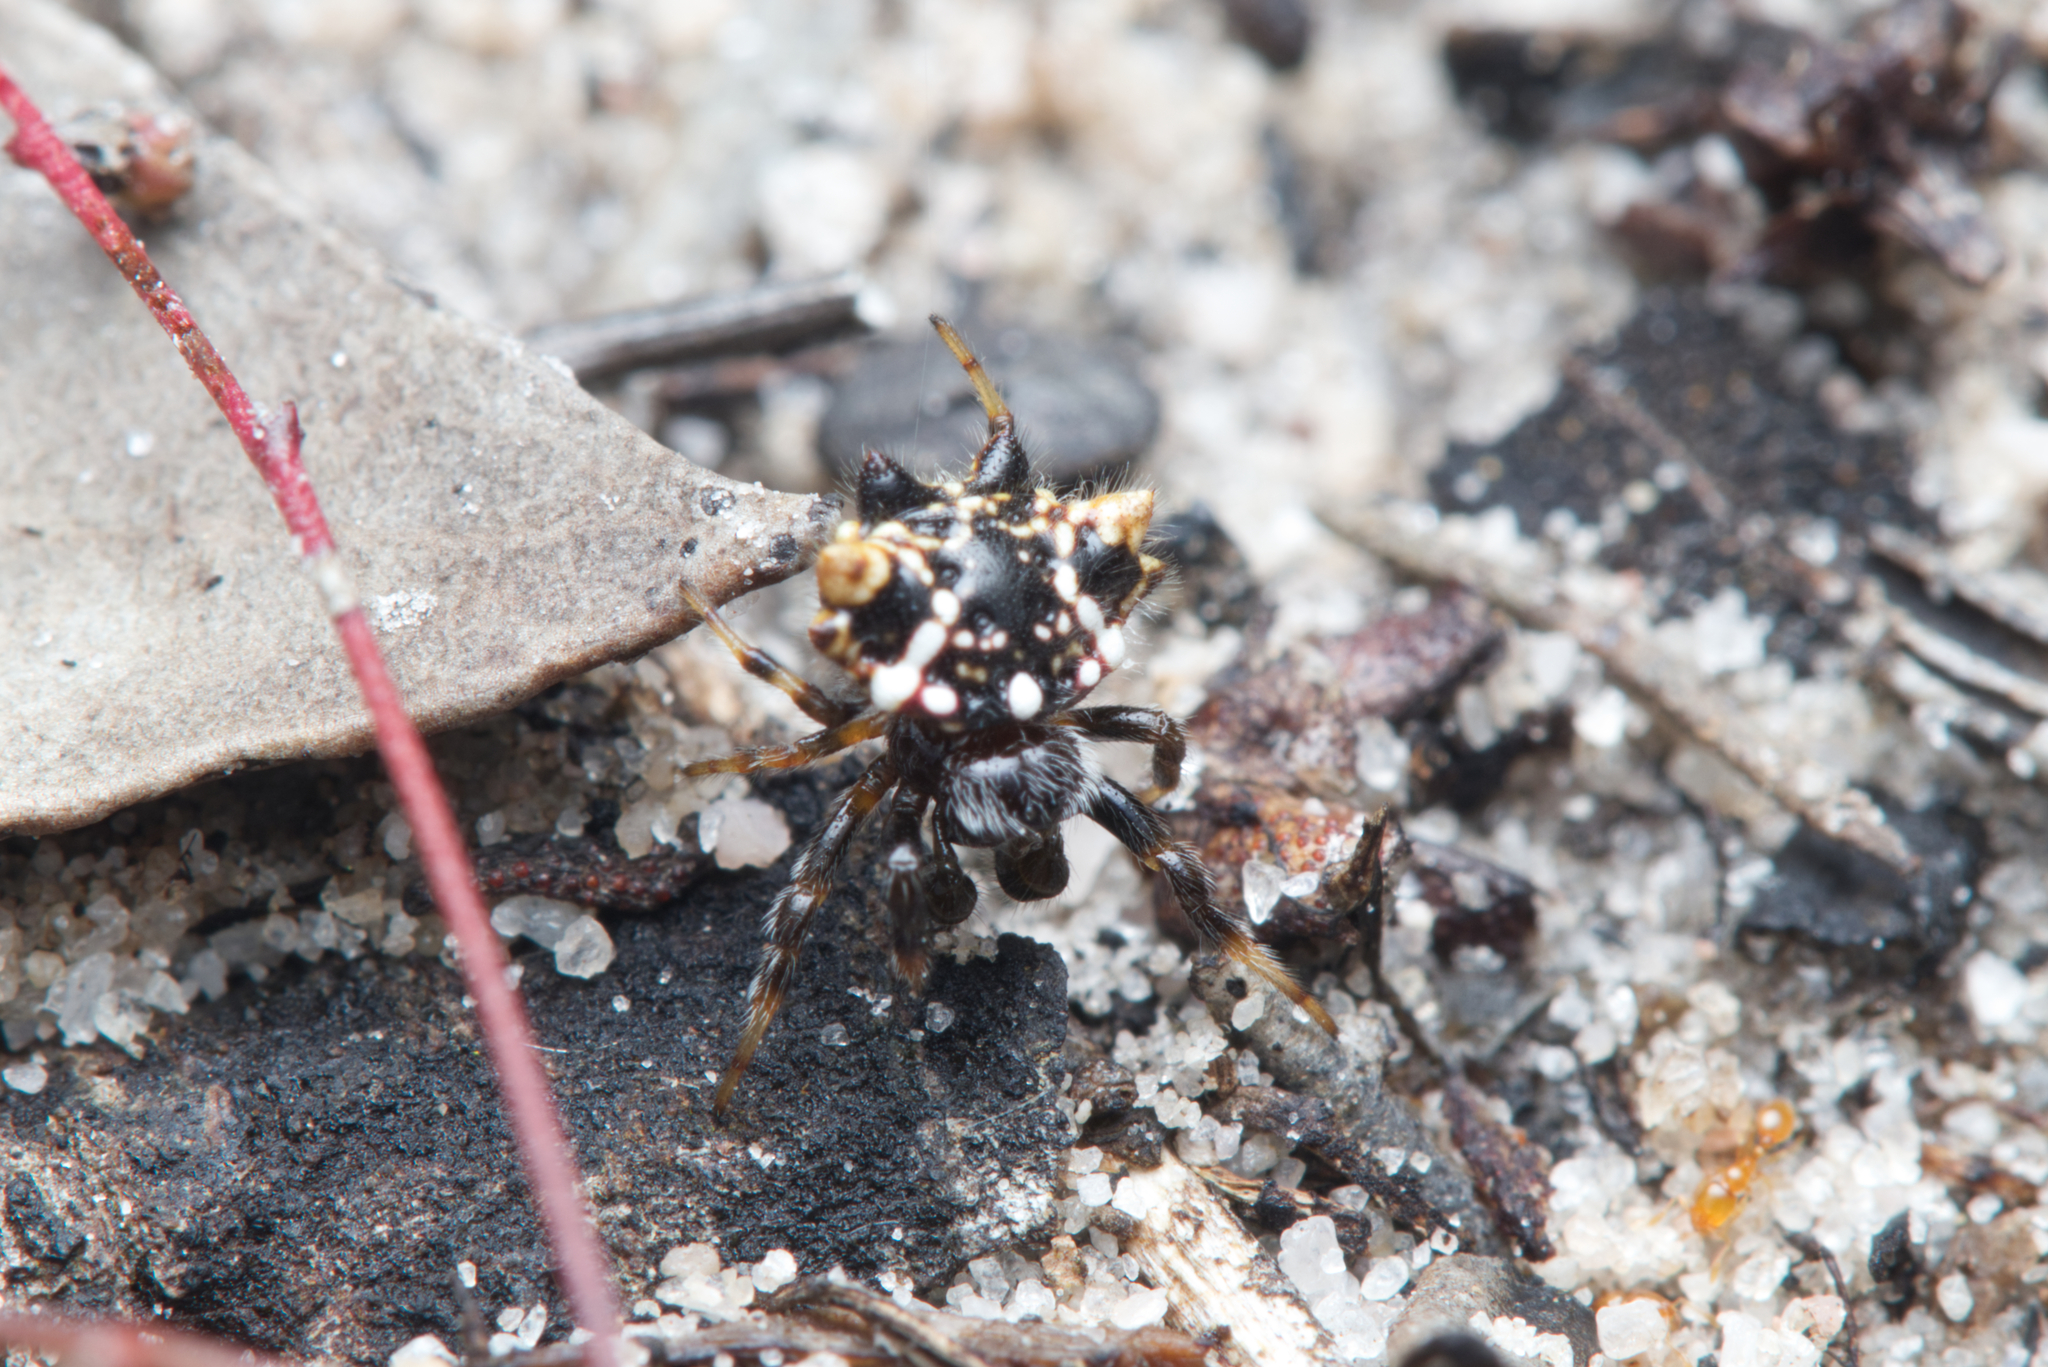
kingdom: Animalia
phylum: Arthropoda
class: Arachnida
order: Araneae
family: Araneidae
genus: Austracantha
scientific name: Austracantha minax
